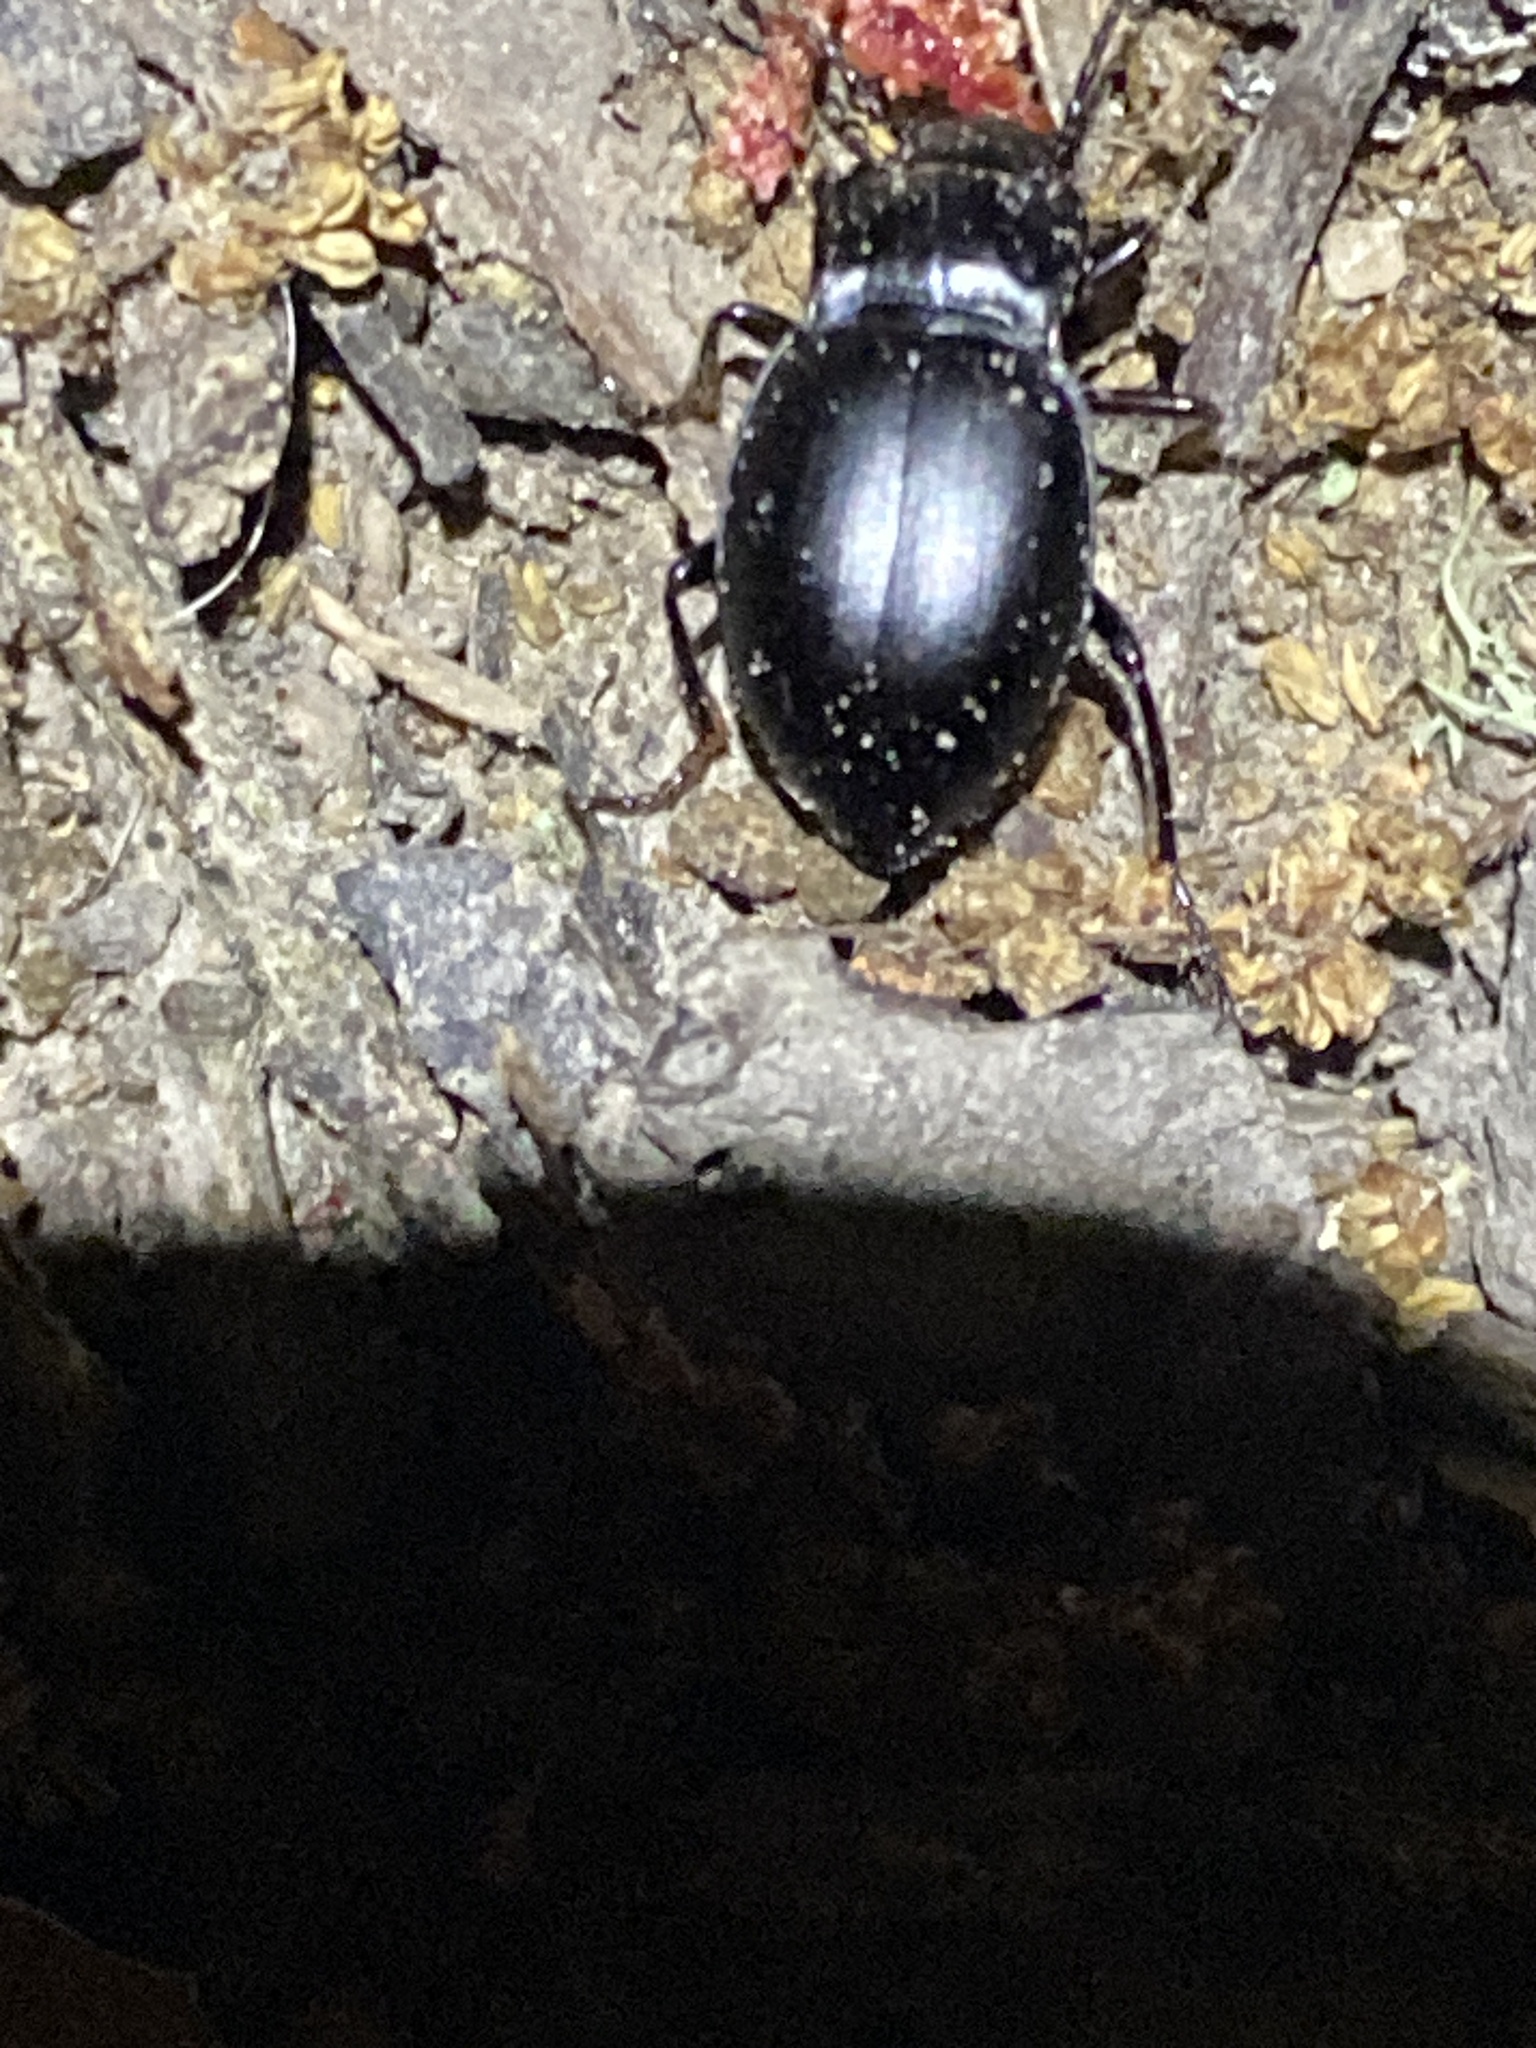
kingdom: Animalia
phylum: Arthropoda
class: Insecta
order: Coleoptera
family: Carabidae
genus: Metrius
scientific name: Metrius contractus
